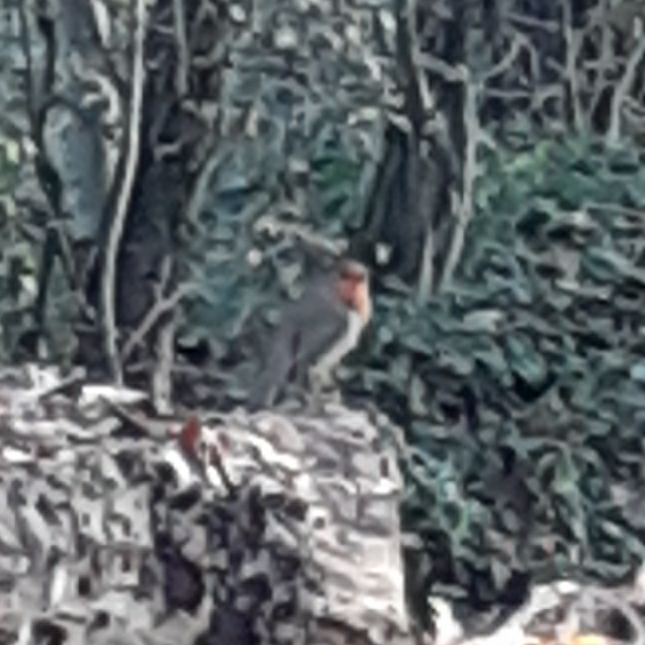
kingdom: Animalia
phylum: Chordata
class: Aves
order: Passeriformes
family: Muscicapidae
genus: Erithacus
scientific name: Erithacus rubecula
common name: European robin
